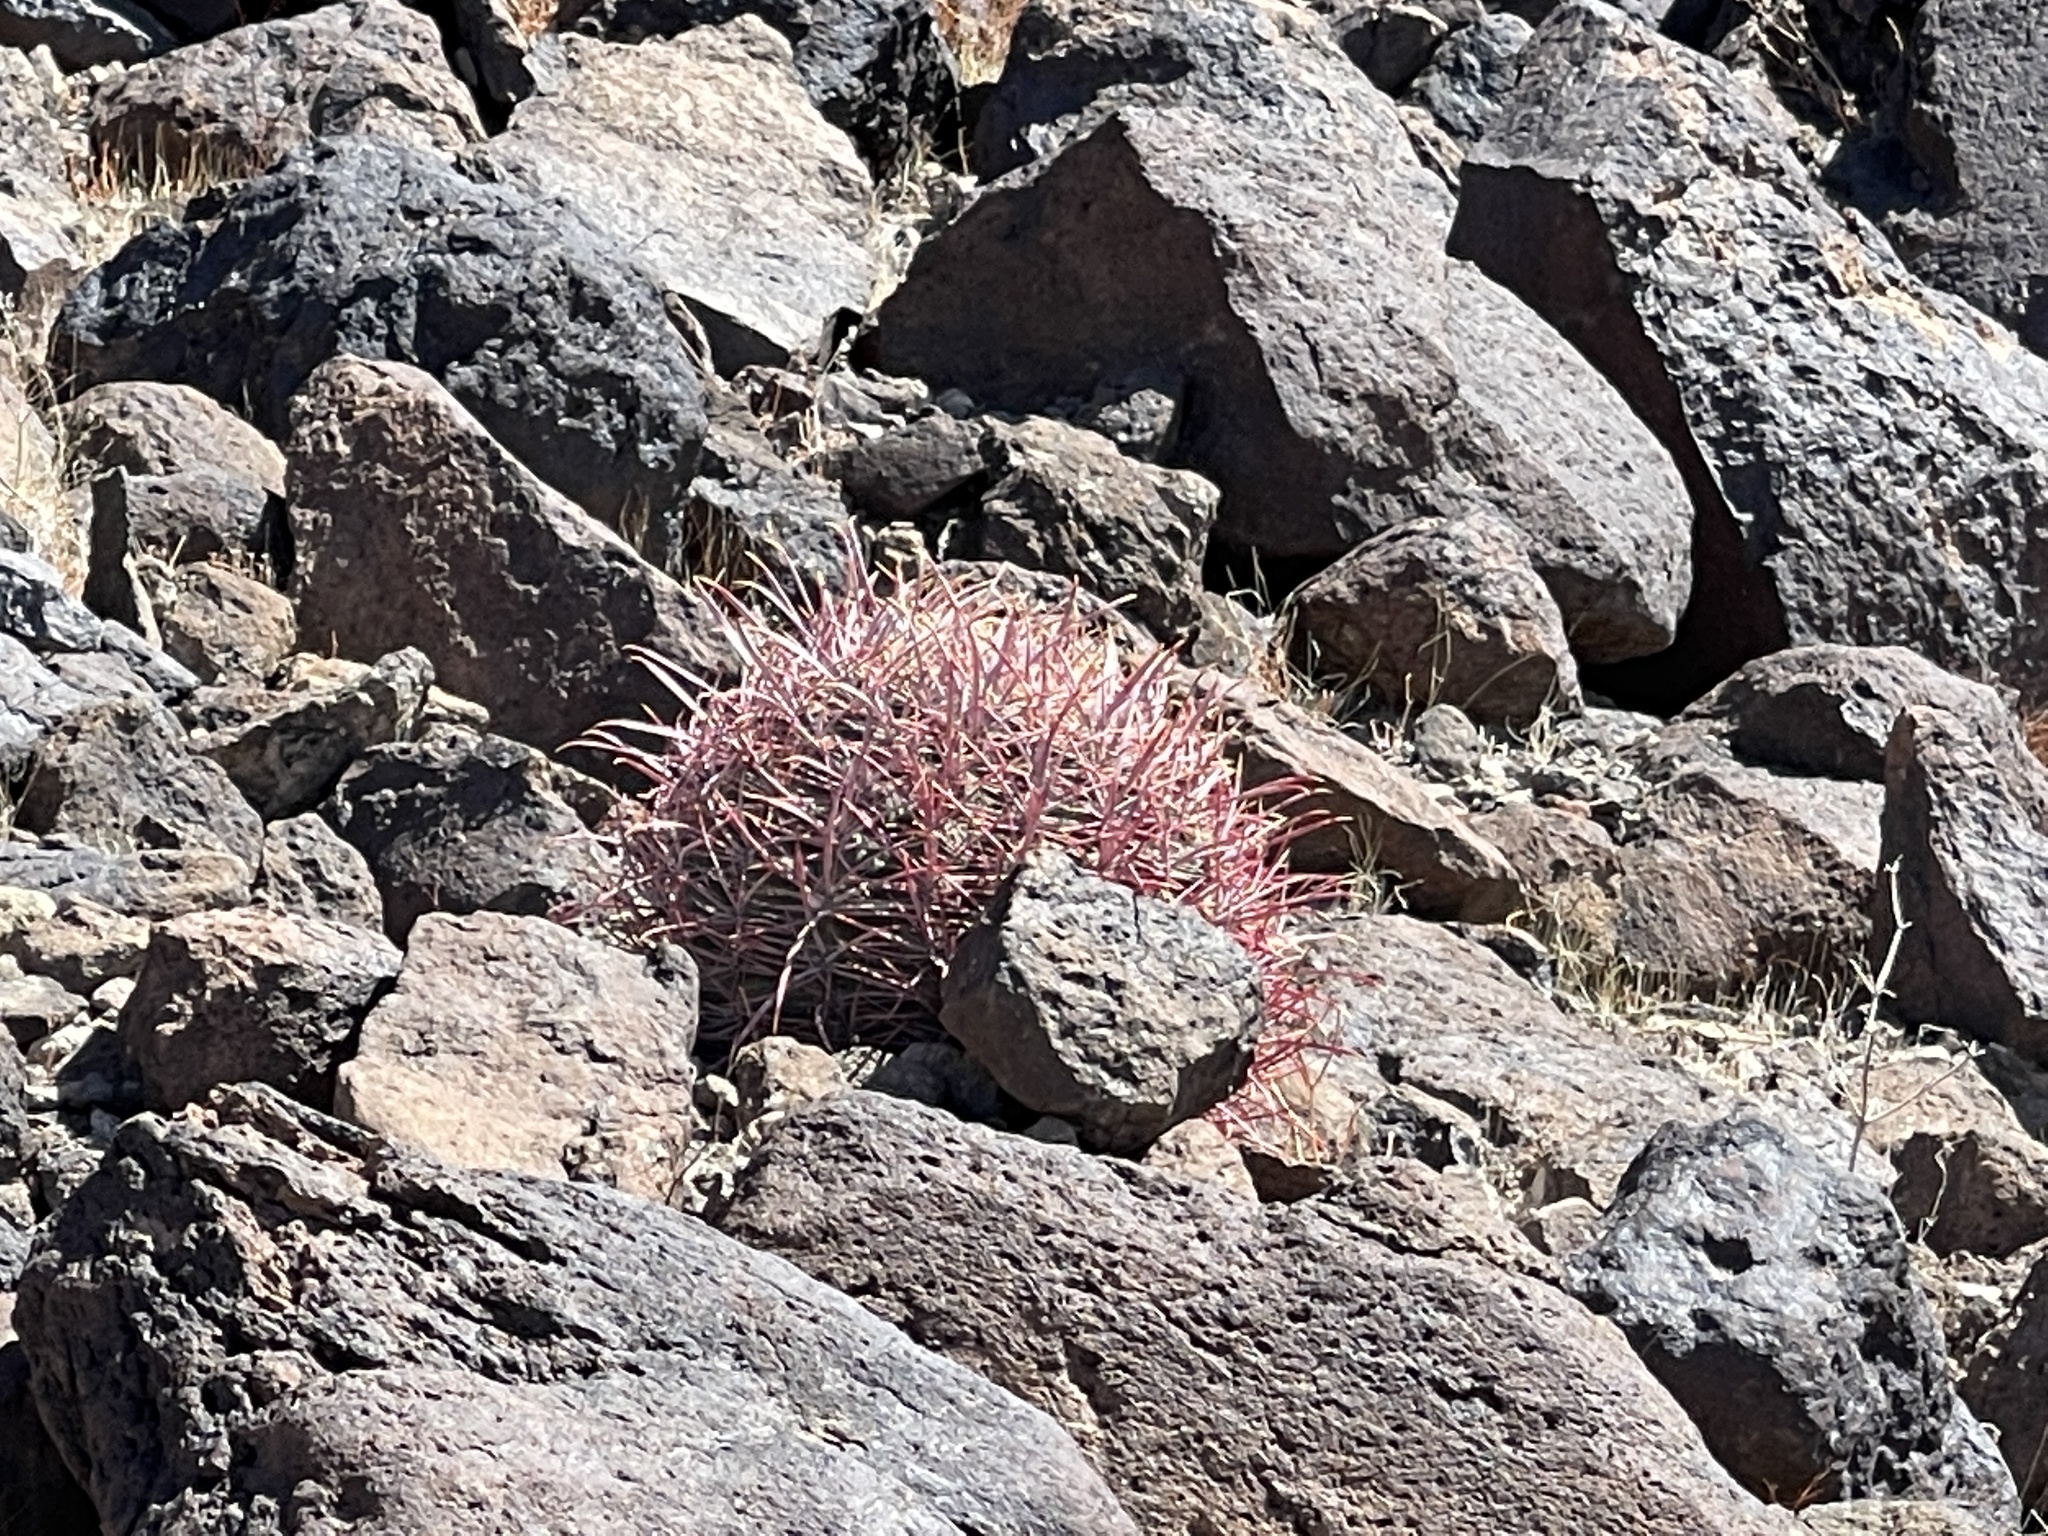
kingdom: Plantae
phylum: Tracheophyta
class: Magnoliopsida
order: Caryophyllales
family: Cactaceae
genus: Ferocactus
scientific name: Ferocactus cylindraceus
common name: California barrel cactus
